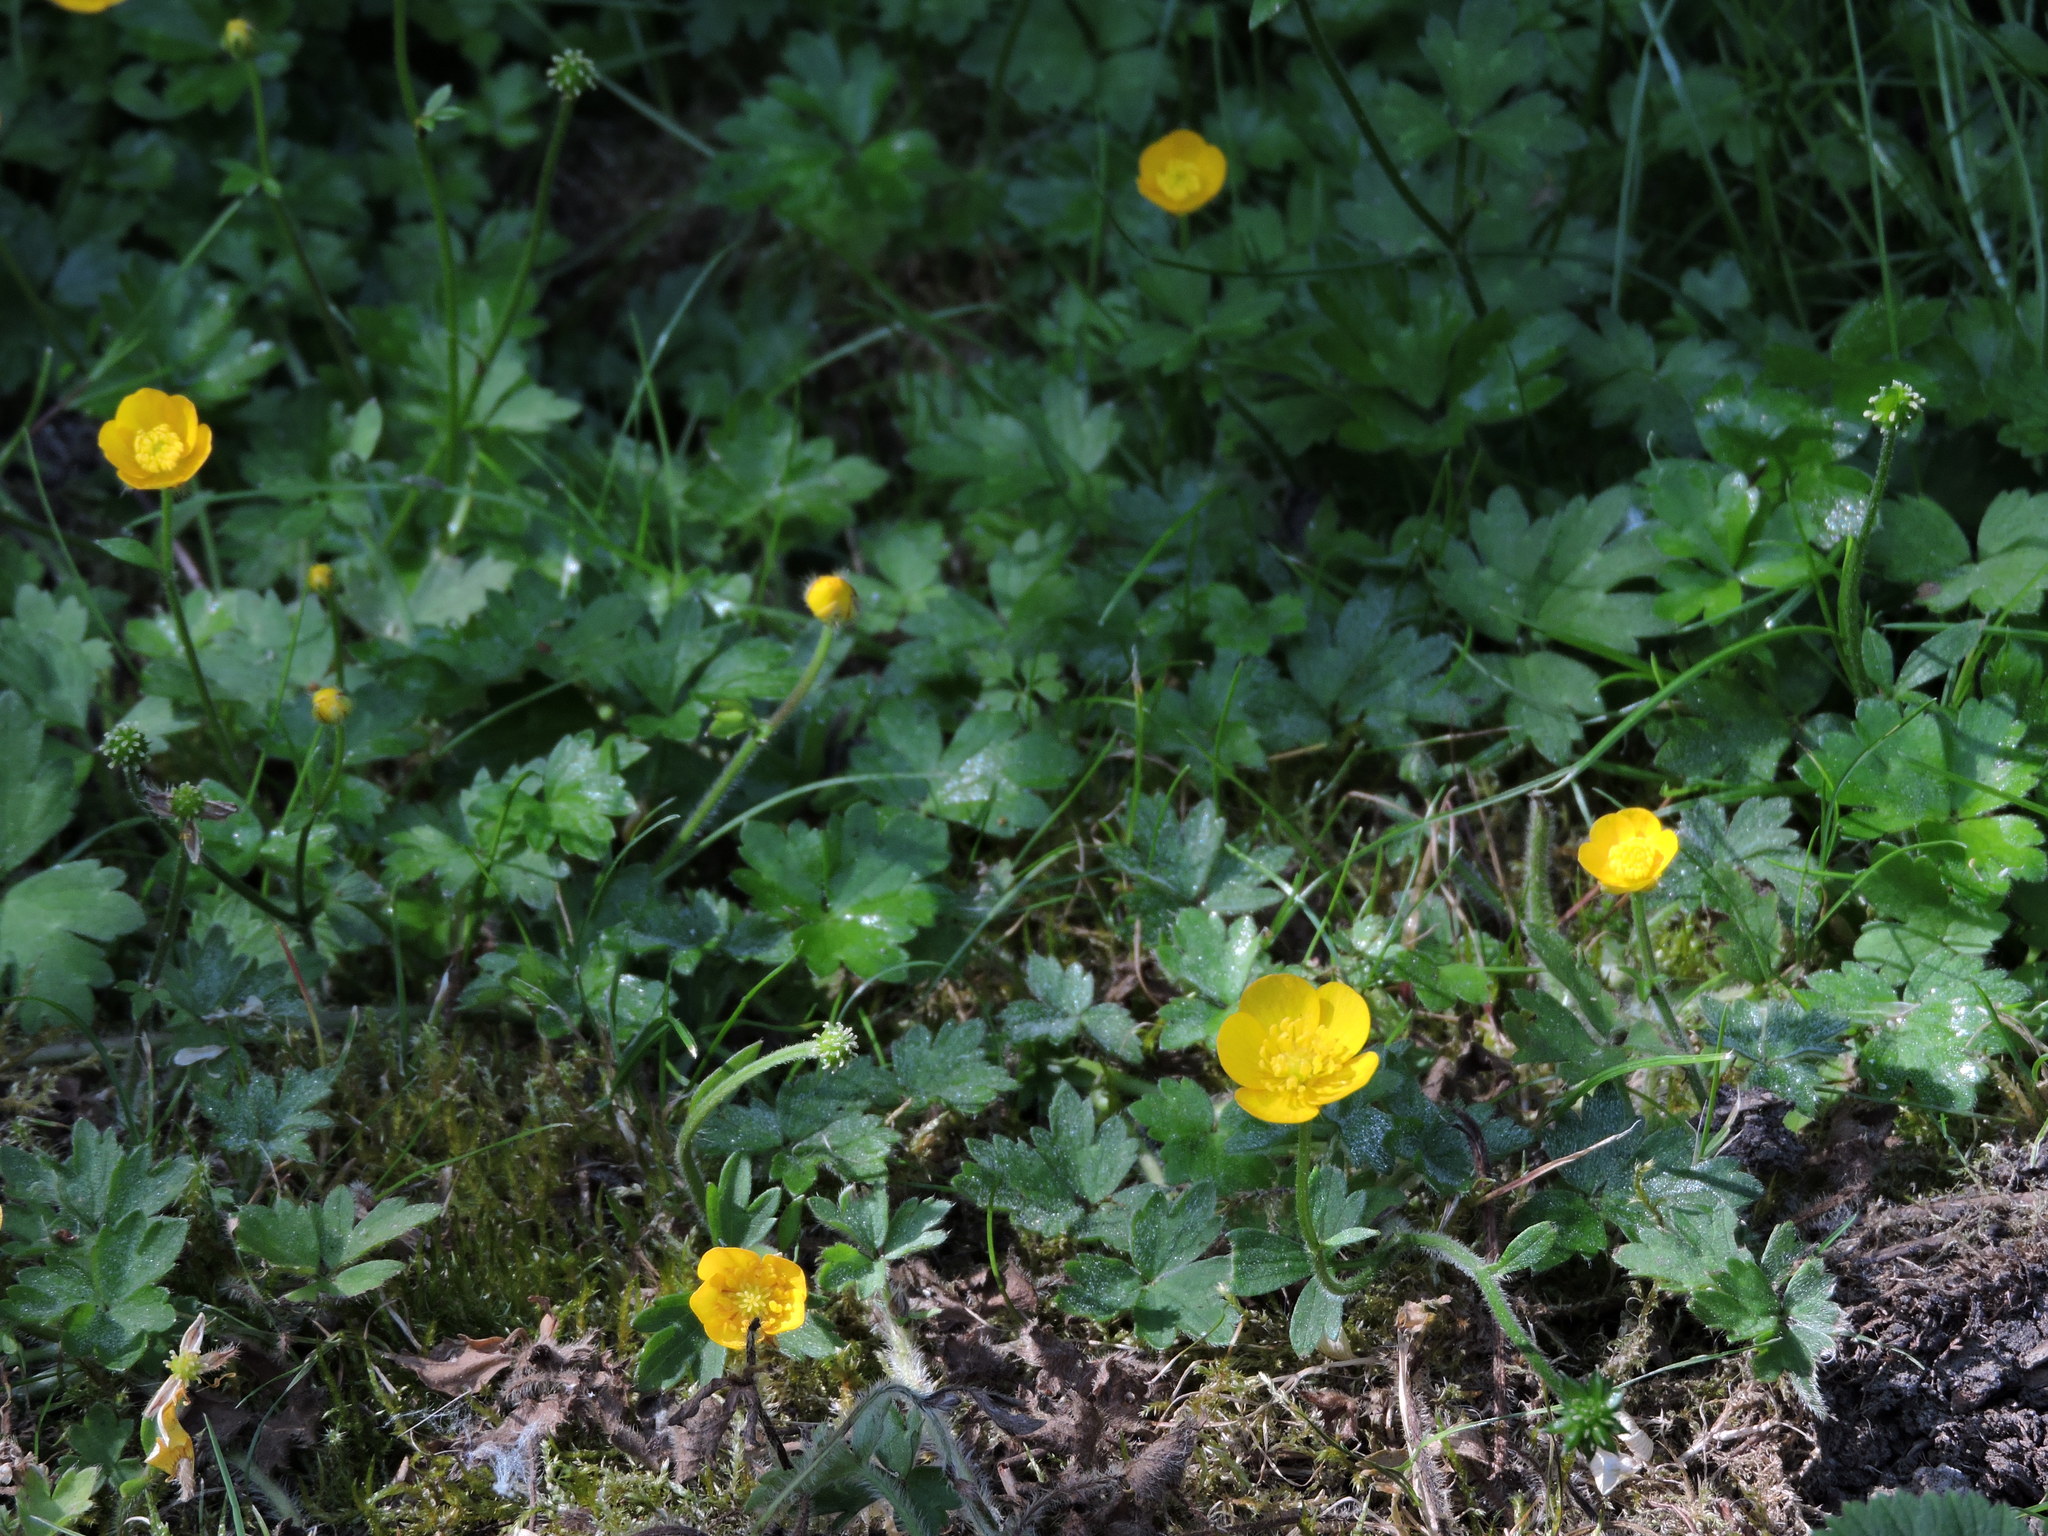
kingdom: Plantae
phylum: Tracheophyta
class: Magnoliopsida
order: Ranunculales
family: Ranunculaceae
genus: Ranunculus
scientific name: Ranunculus repens
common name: Creeping buttercup
